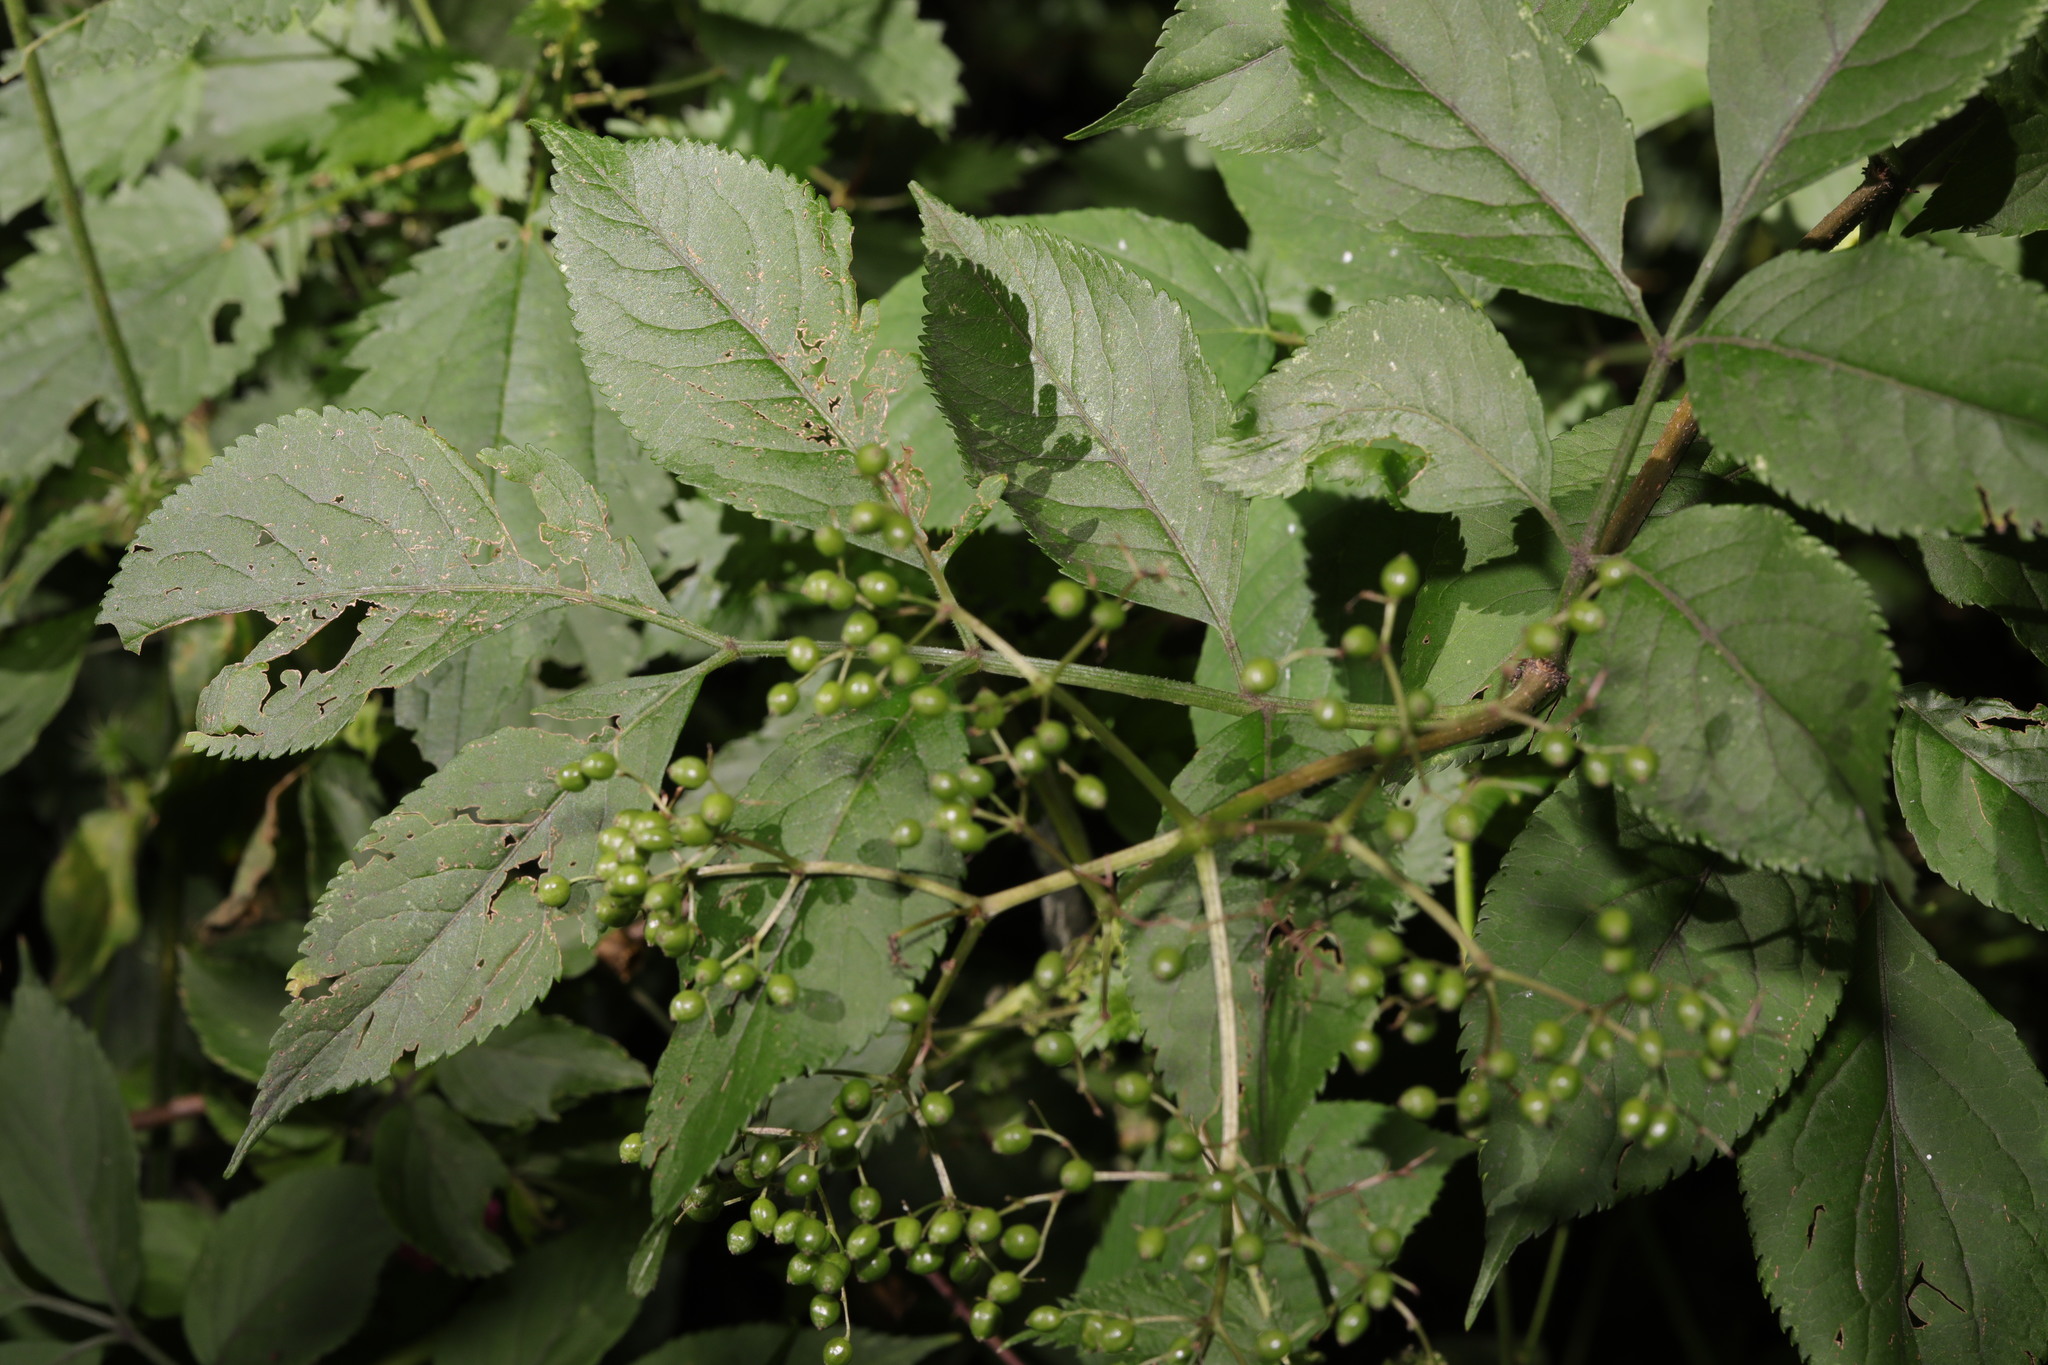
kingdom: Plantae
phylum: Tracheophyta
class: Magnoliopsida
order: Dipsacales
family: Viburnaceae
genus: Sambucus
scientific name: Sambucus nigra
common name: Elder
